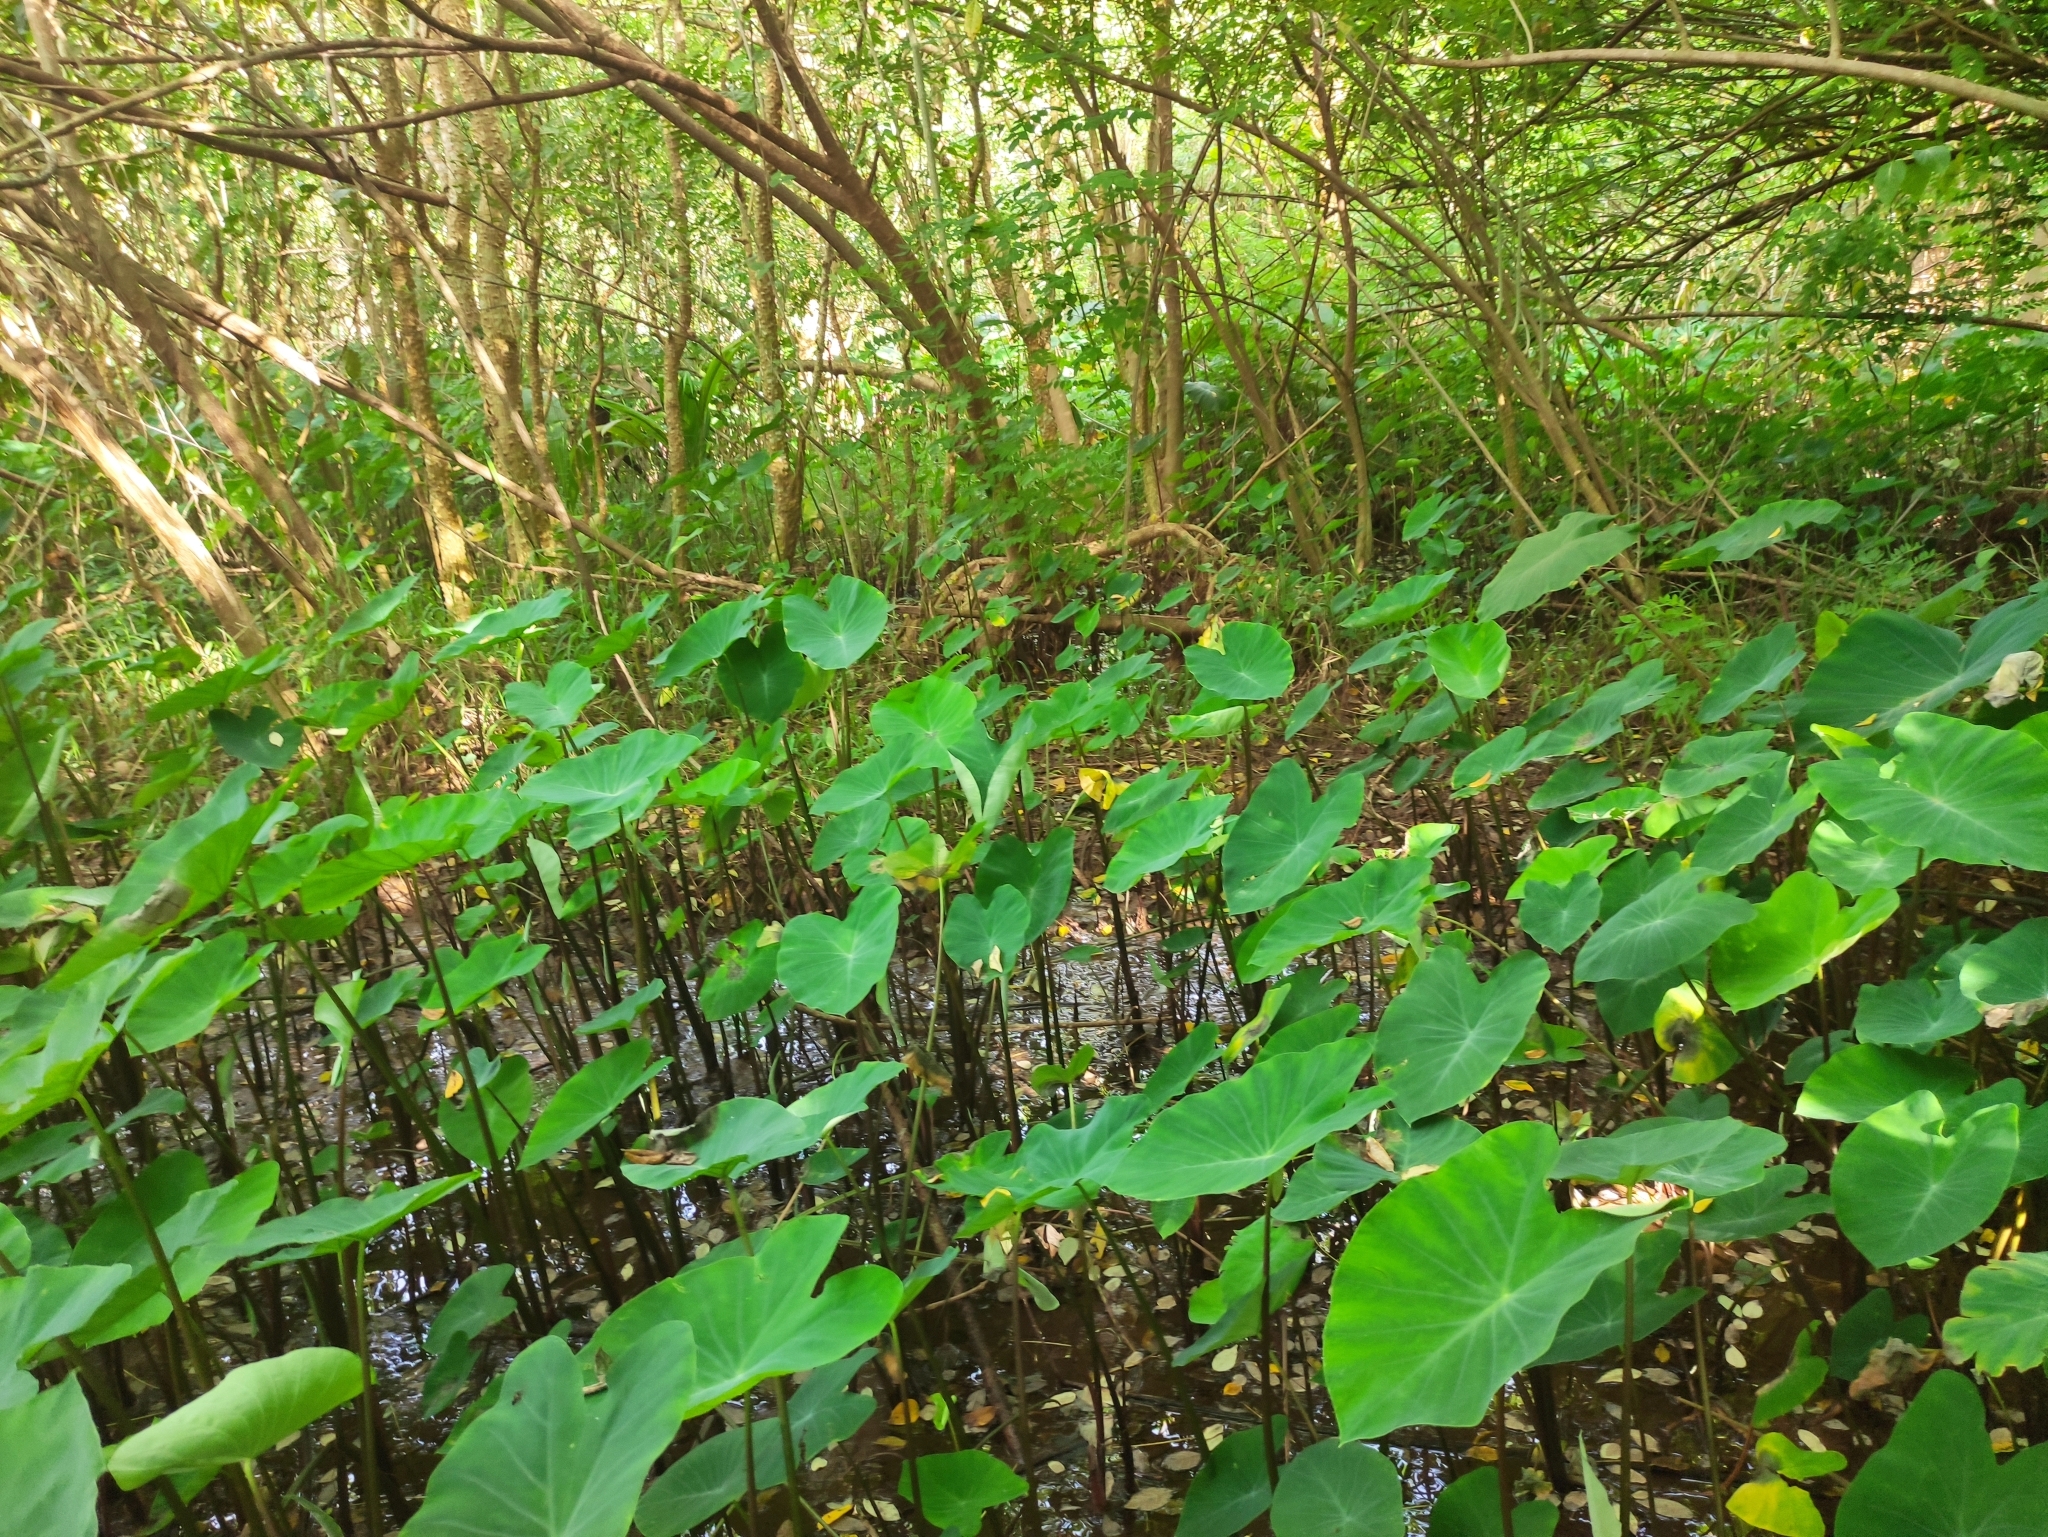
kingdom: Plantae
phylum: Tracheophyta
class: Liliopsida
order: Alismatales
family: Araceae
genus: Colocasia
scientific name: Colocasia esculenta
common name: Taro
